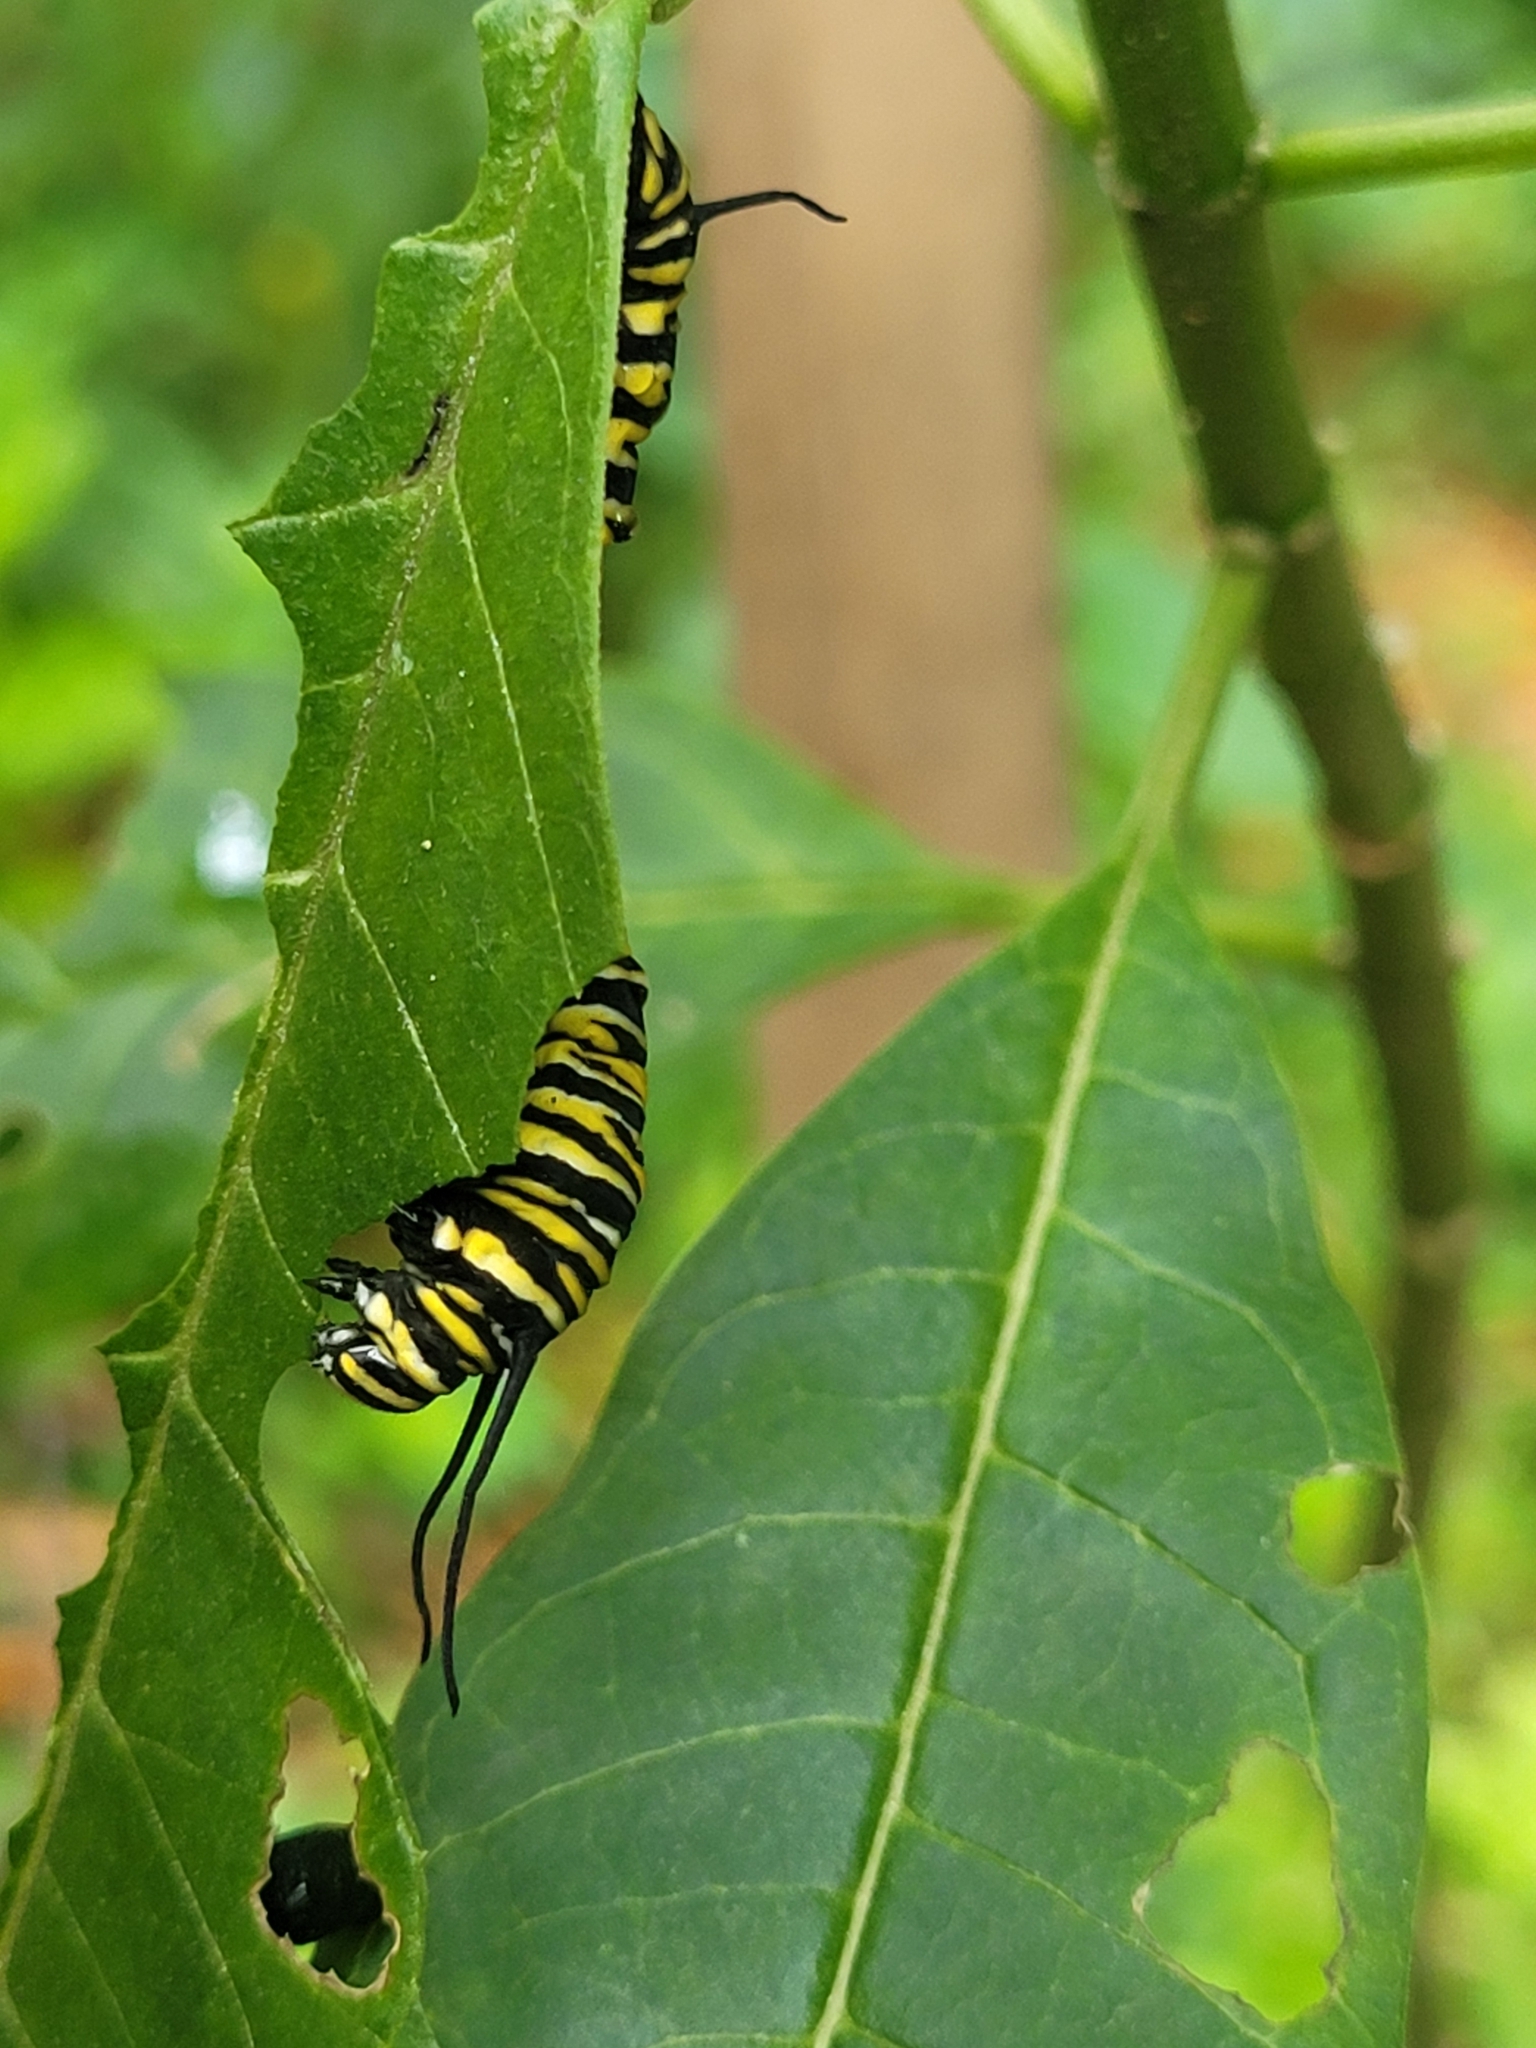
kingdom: Animalia
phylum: Arthropoda
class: Insecta
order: Lepidoptera
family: Nymphalidae
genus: Danaus
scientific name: Danaus plexippus
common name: Monarch
